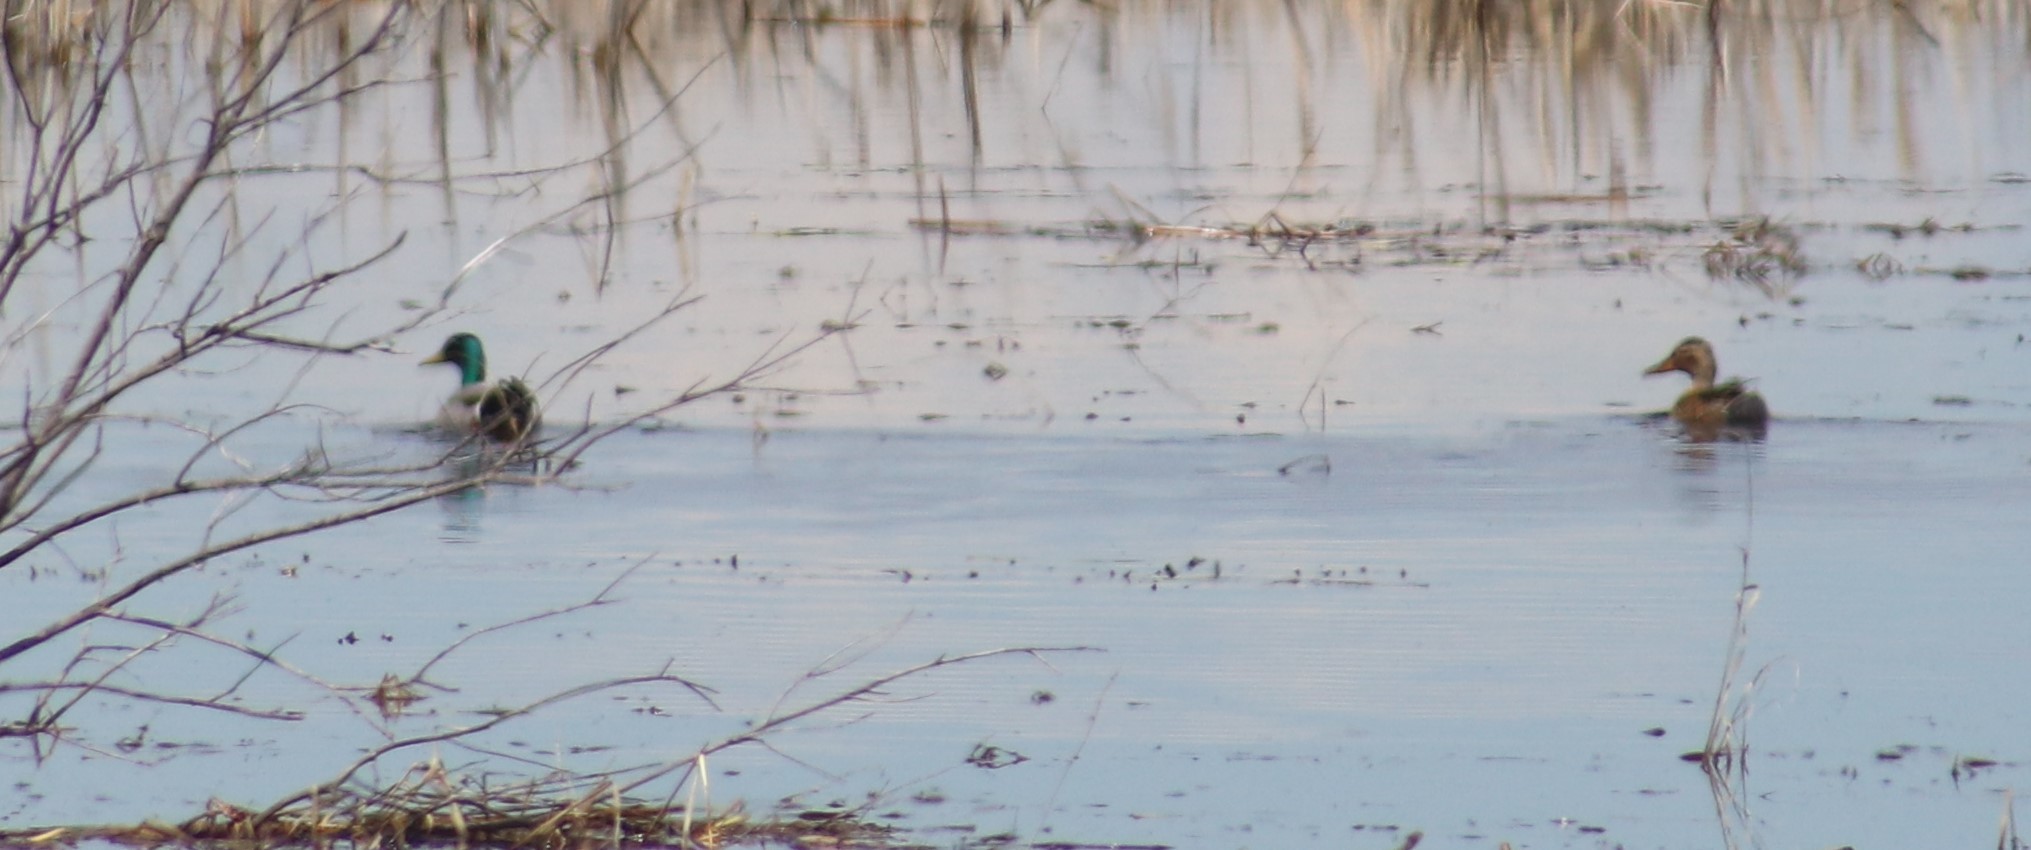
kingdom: Animalia
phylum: Chordata
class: Aves
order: Anseriformes
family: Anatidae
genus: Anas
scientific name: Anas platyrhynchos
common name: Mallard
